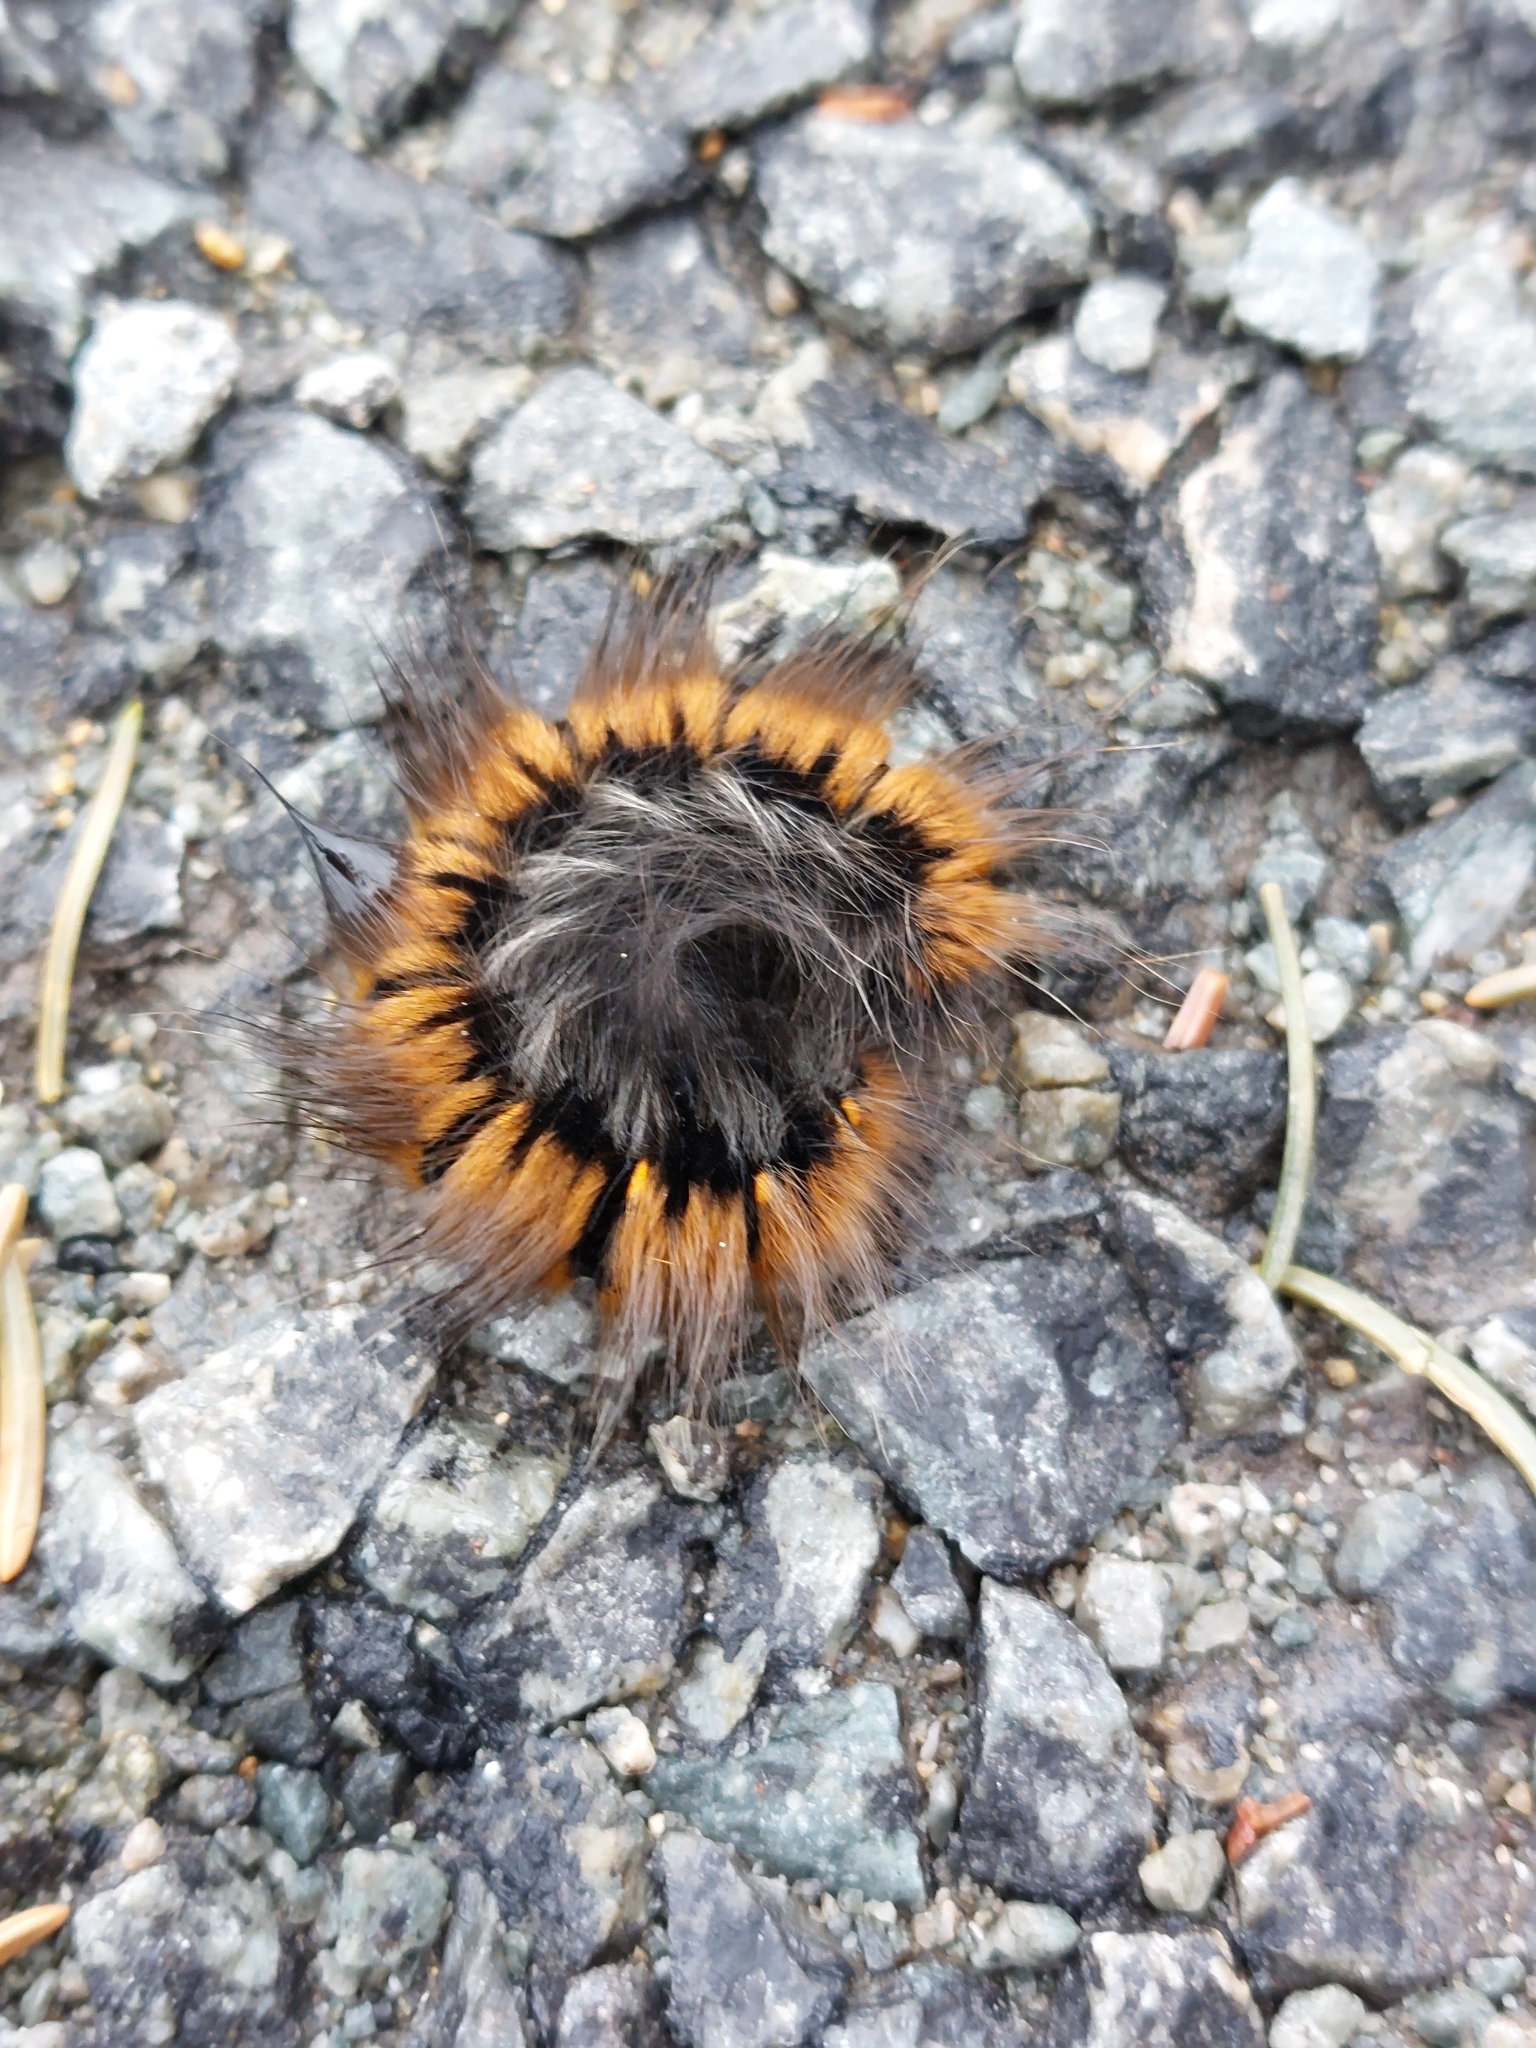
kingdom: Animalia
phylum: Arthropoda
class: Insecta
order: Lepidoptera
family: Lasiocampidae
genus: Macrothylacia
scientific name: Macrothylacia rubi
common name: Fox moth
